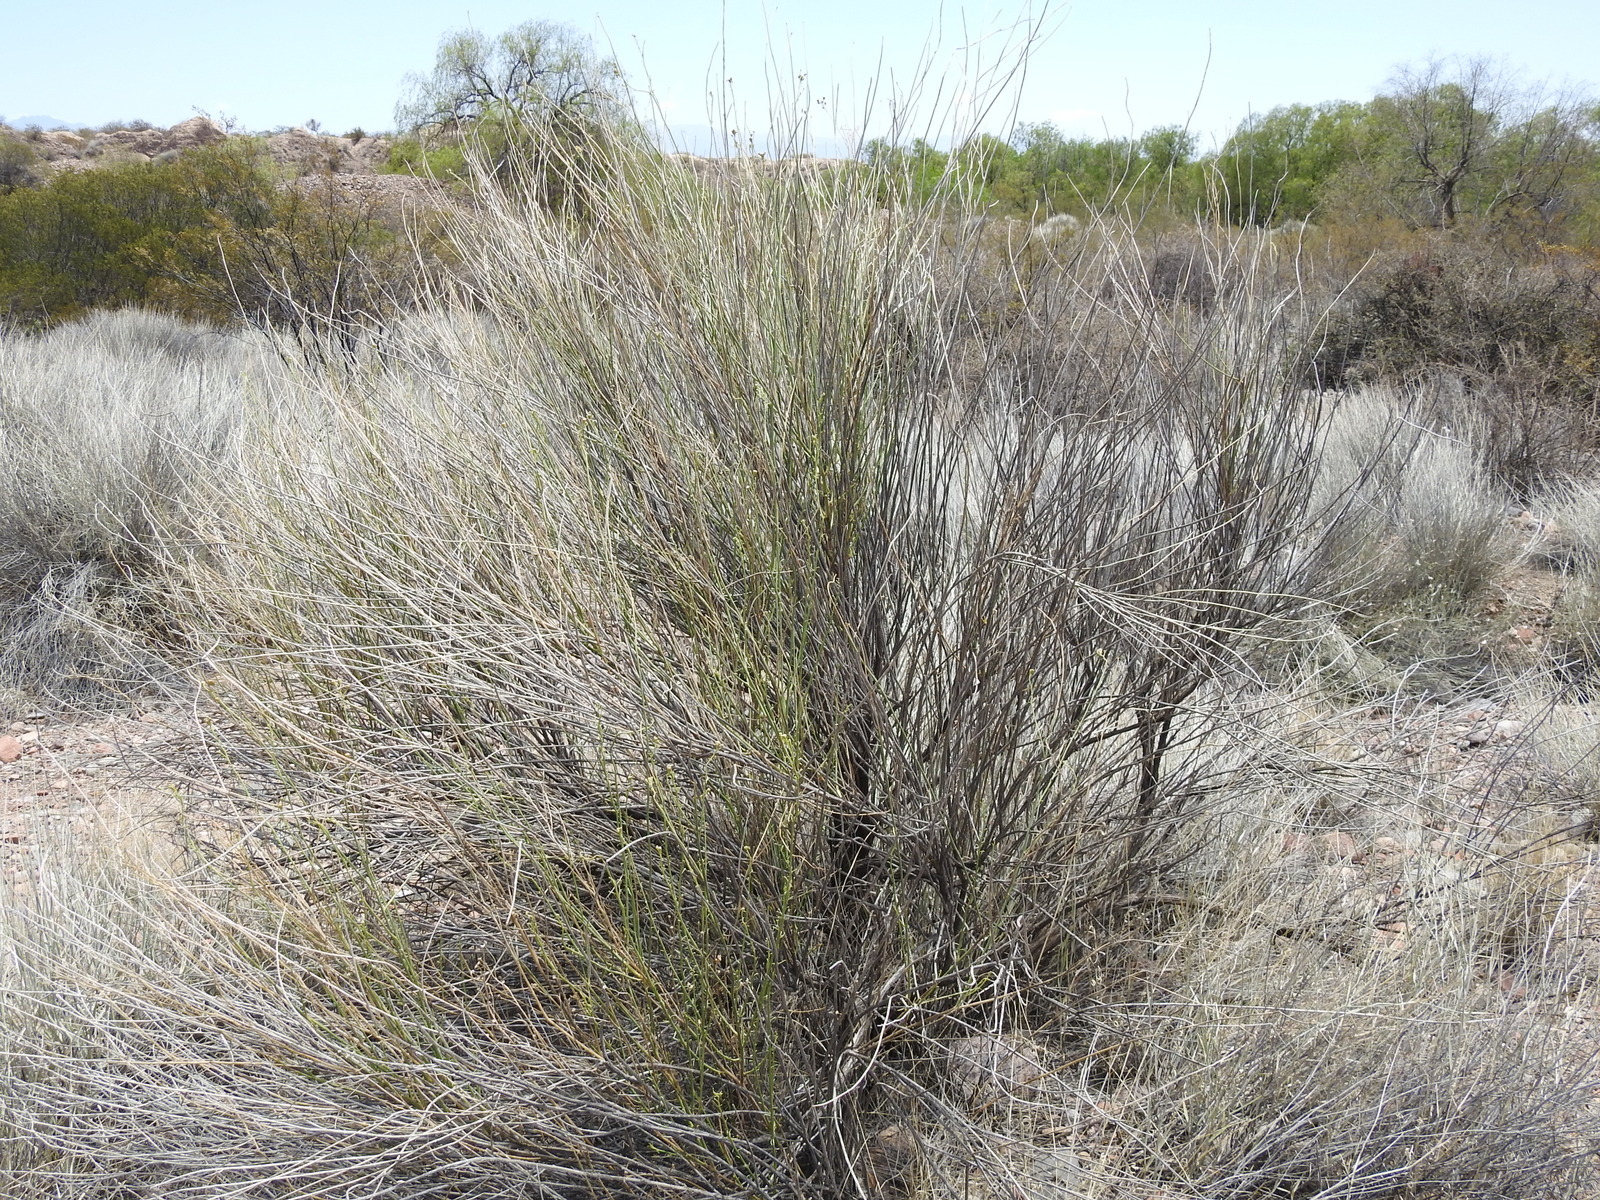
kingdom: Plantae
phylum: Tracheophyta
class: Magnoliopsida
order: Asterales
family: Asteraceae
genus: Pseudobaccharis
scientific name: Pseudobaccharis retamoides
